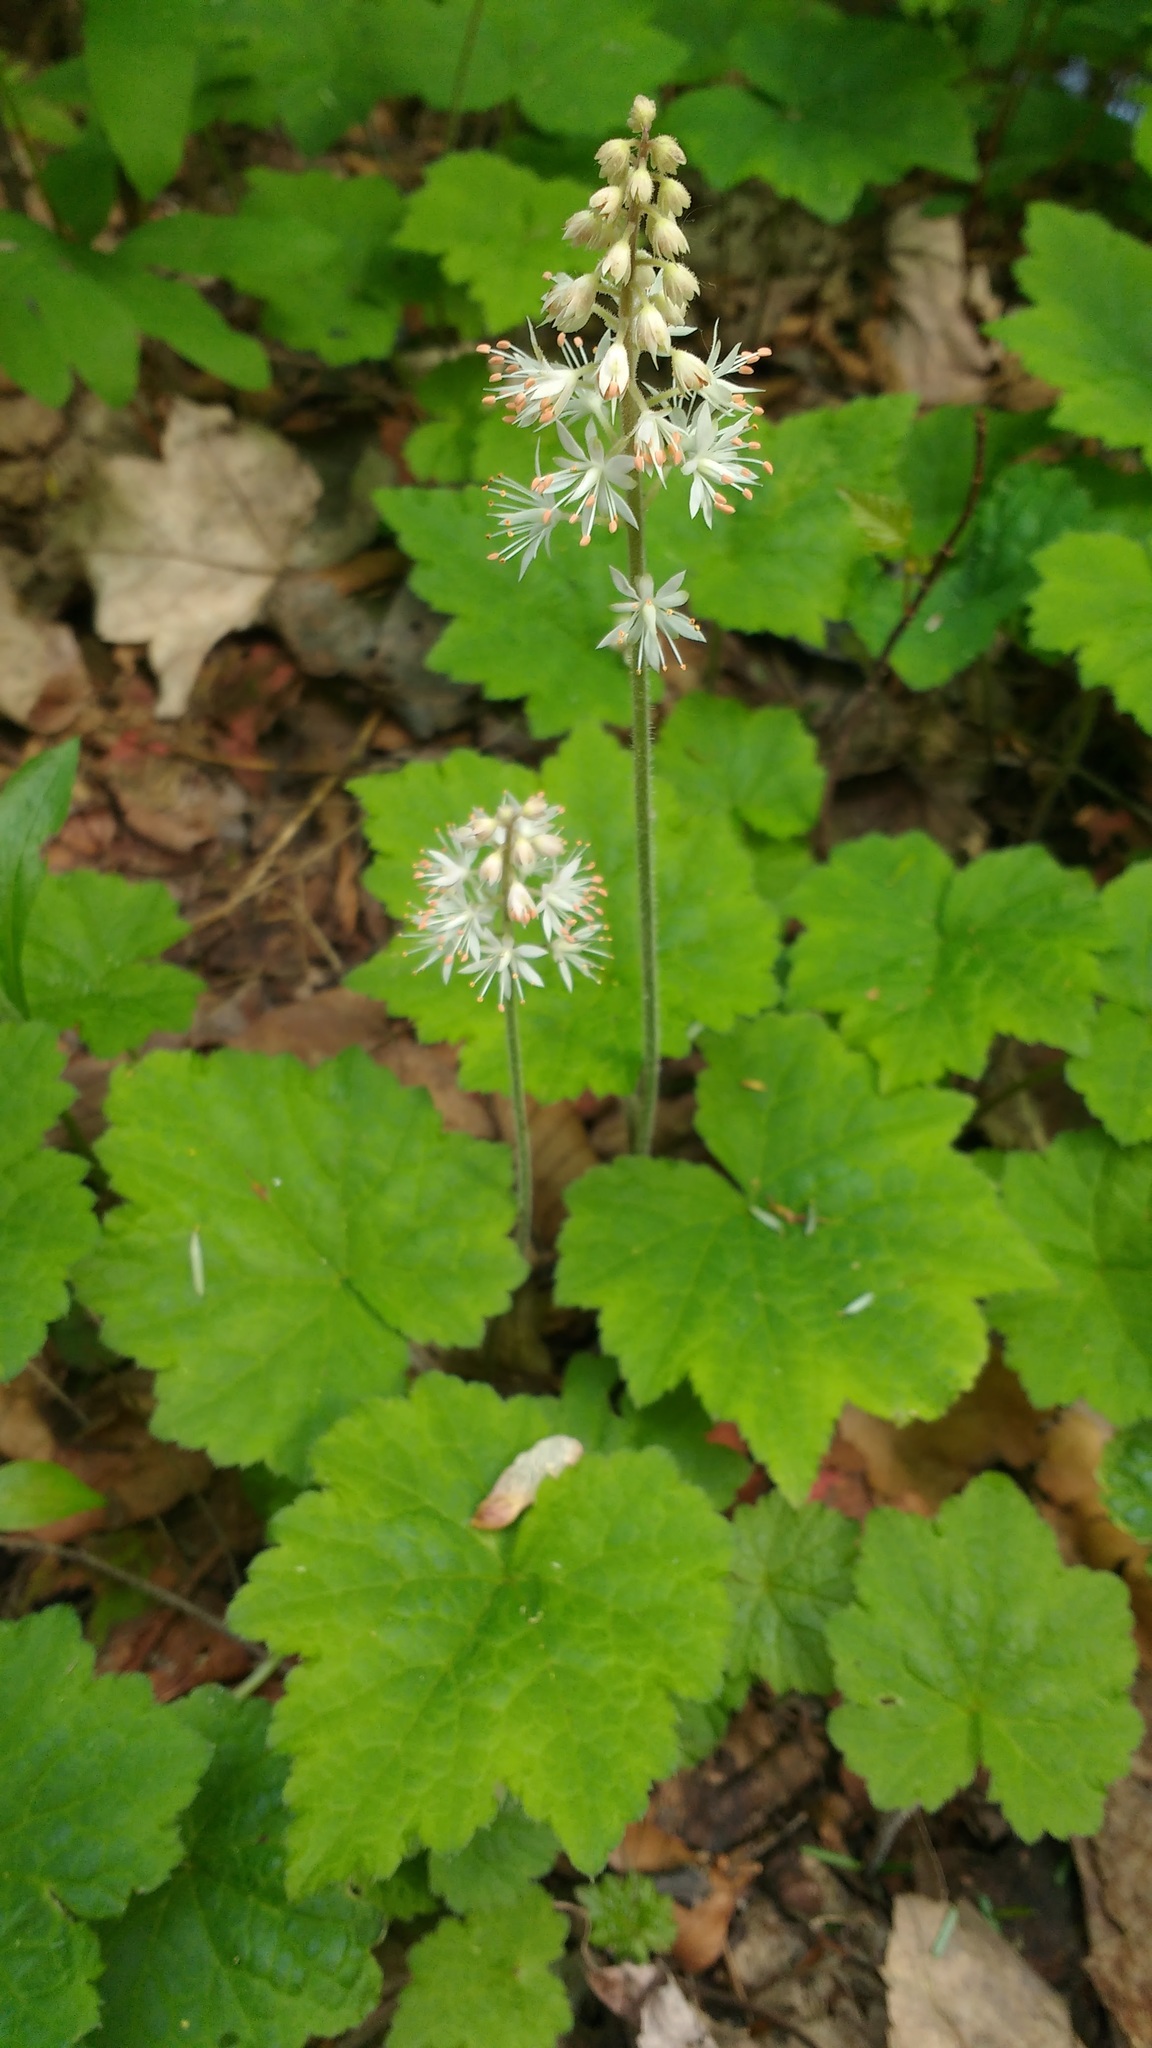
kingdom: Plantae
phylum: Tracheophyta
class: Magnoliopsida
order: Saxifragales
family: Saxifragaceae
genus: Tiarella
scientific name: Tiarella stolonifera
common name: Stoloniferous foamflower
